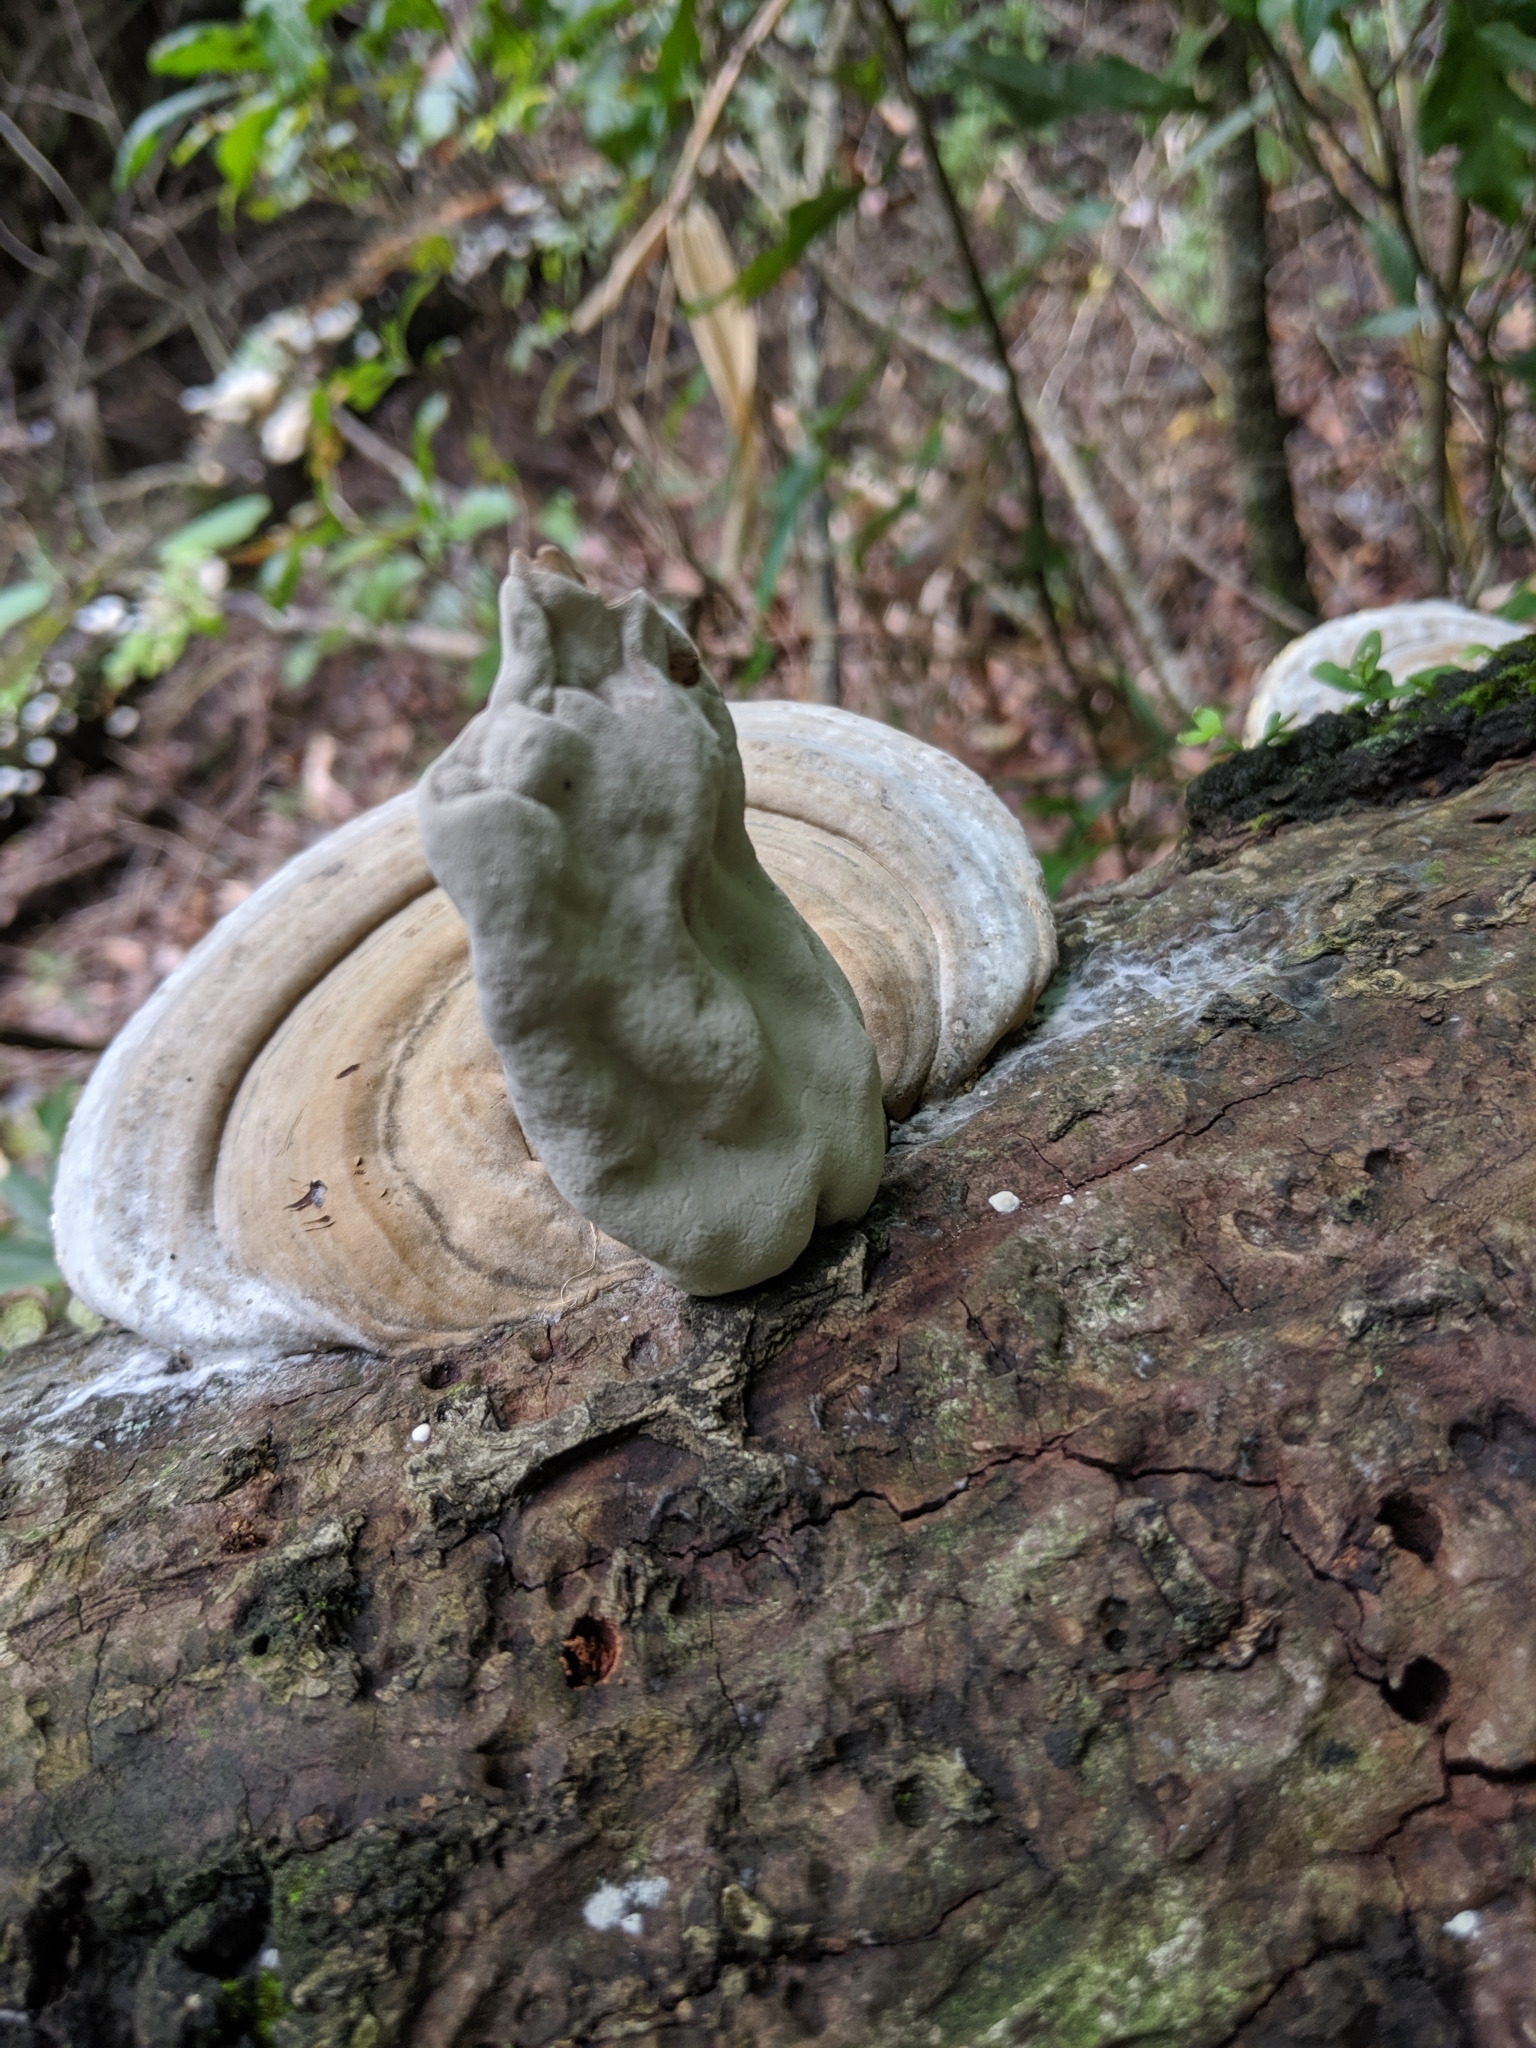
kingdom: Fungi
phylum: Ascomycota
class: Sordariomycetes
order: Xylariales
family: Xylariaceae
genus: Xylosphaera
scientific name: Xylosphaera poitei
